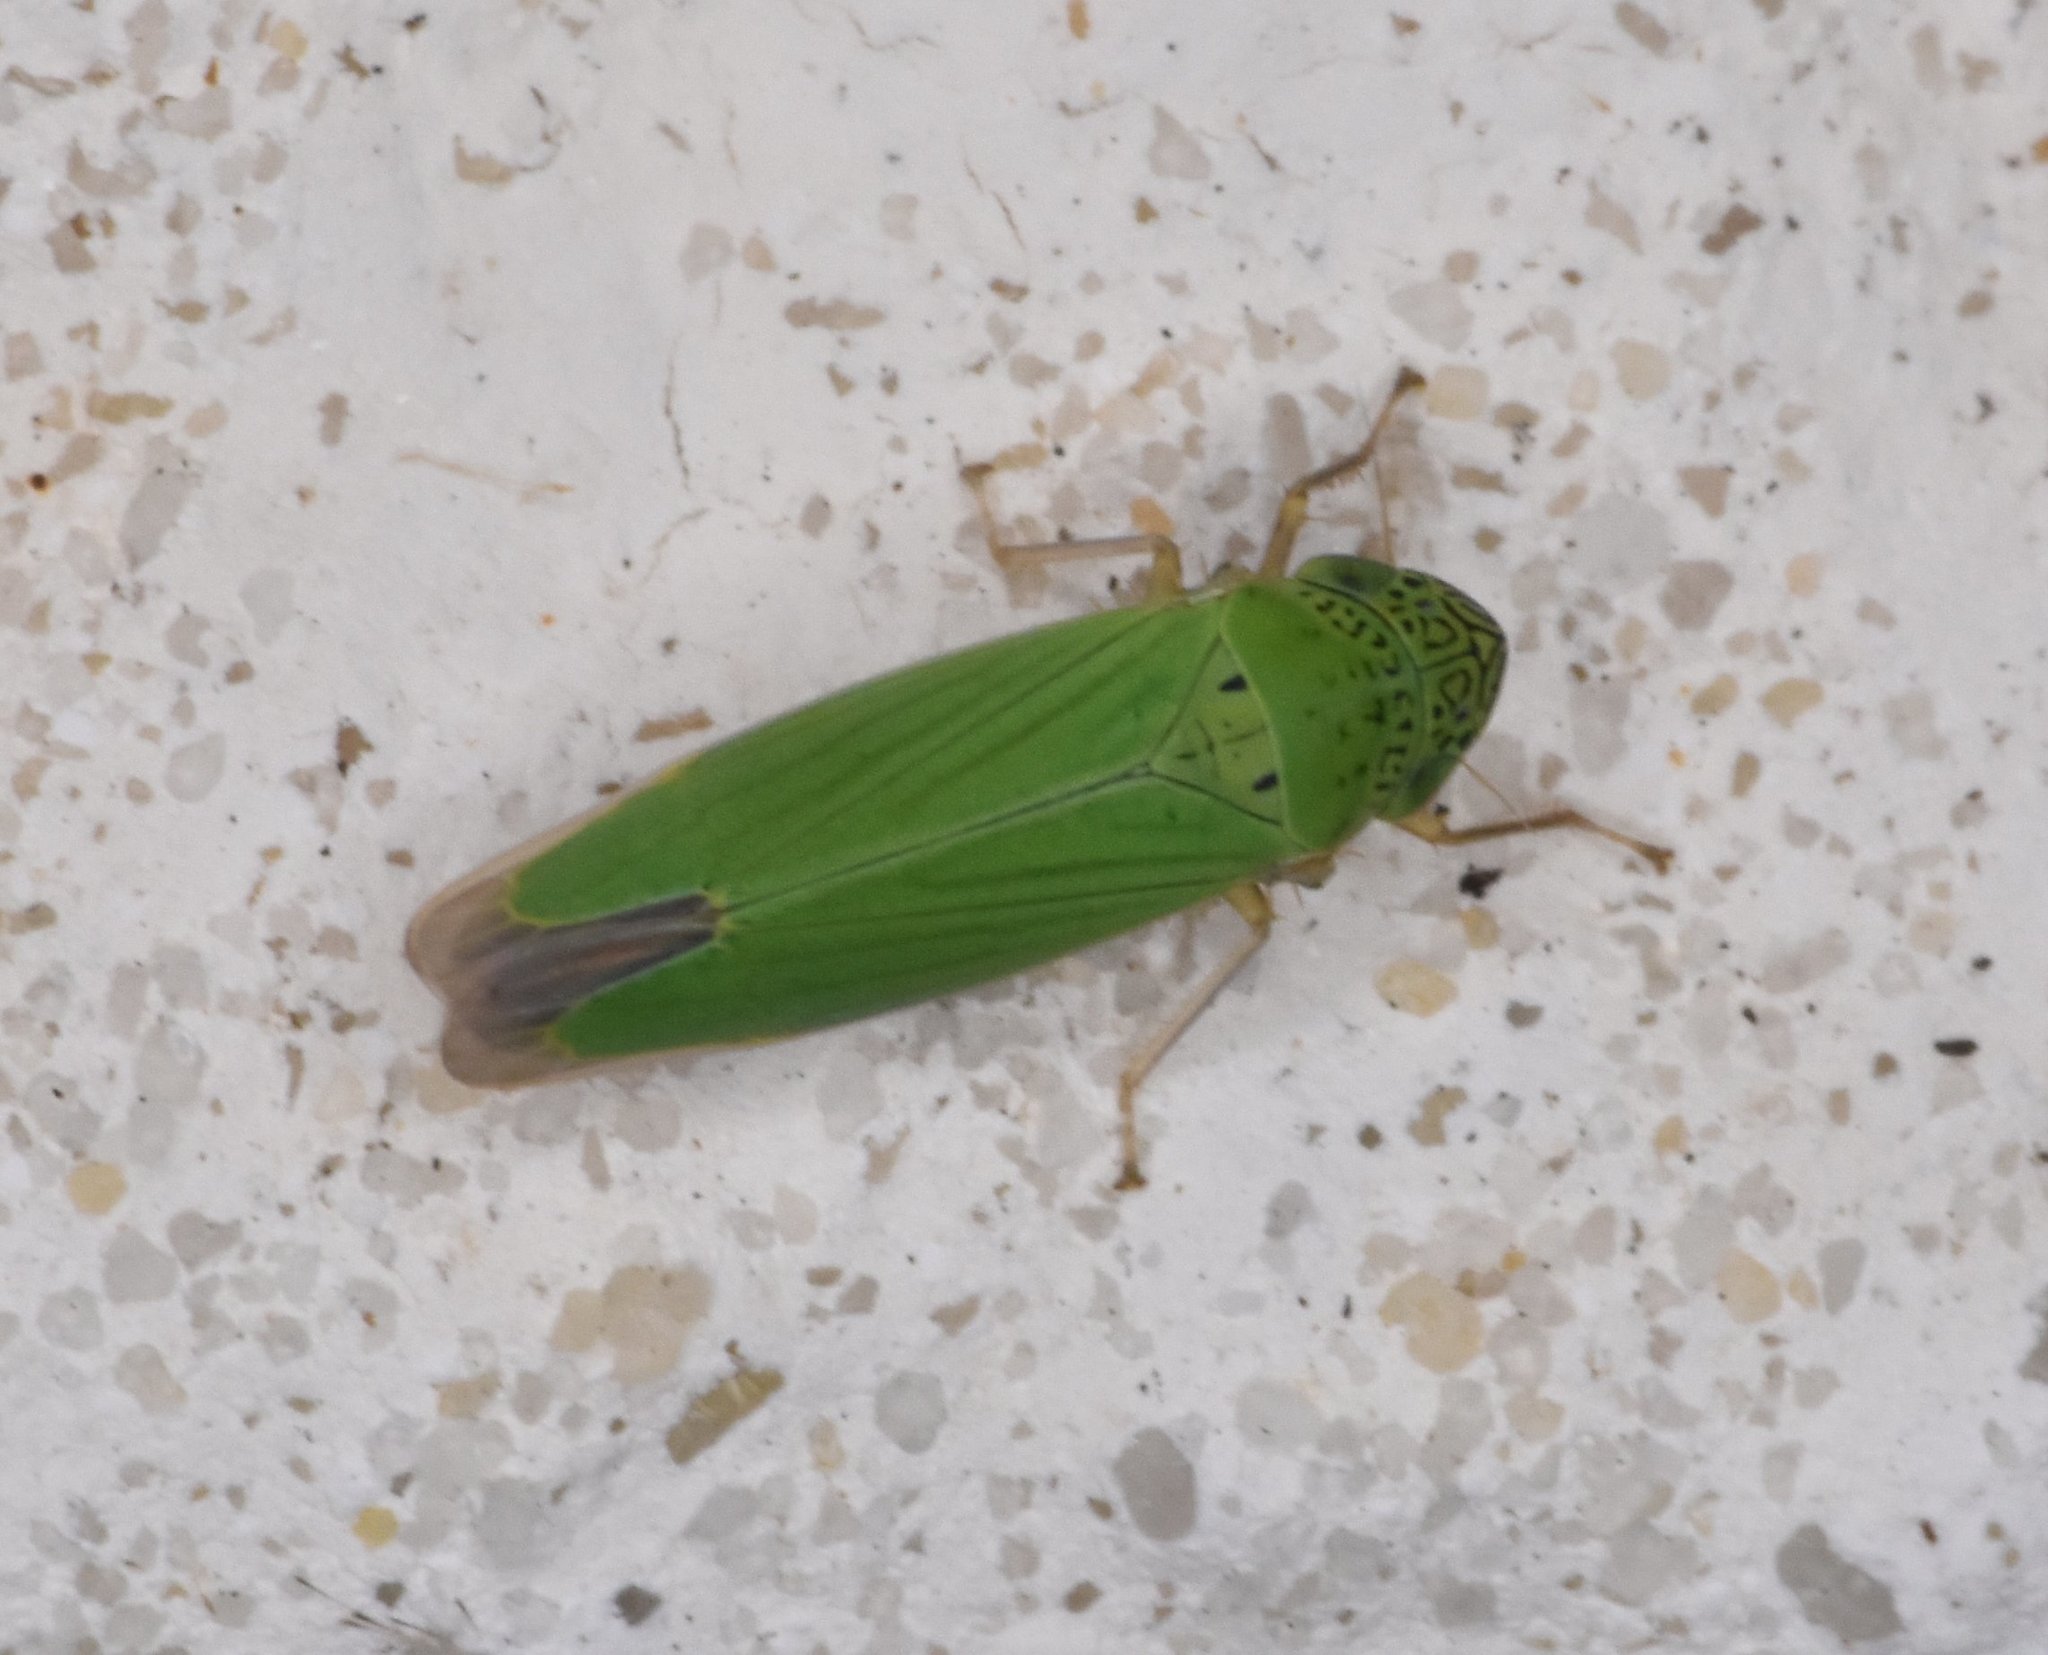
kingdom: Animalia
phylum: Arthropoda
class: Insecta
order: Hemiptera
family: Cicadellidae
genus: Hortensia
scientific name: Hortensia similis
